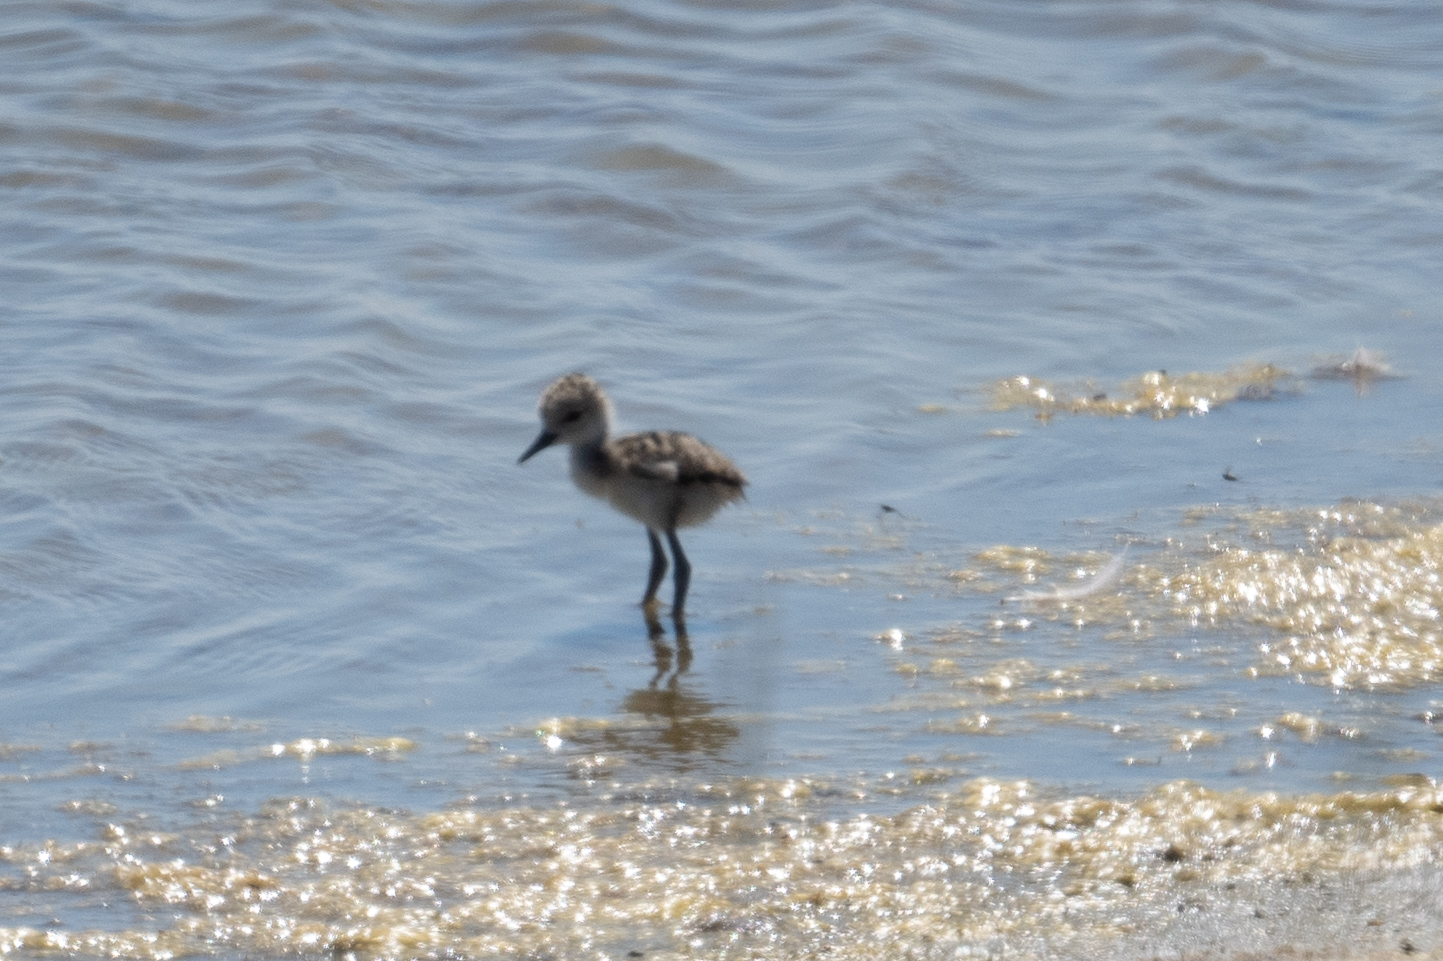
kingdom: Animalia
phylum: Chordata
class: Aves
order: Charadriiformes
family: Recurvirostridae
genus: Himantopus
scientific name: Himantopus mexicanus
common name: Black-necked stilt
